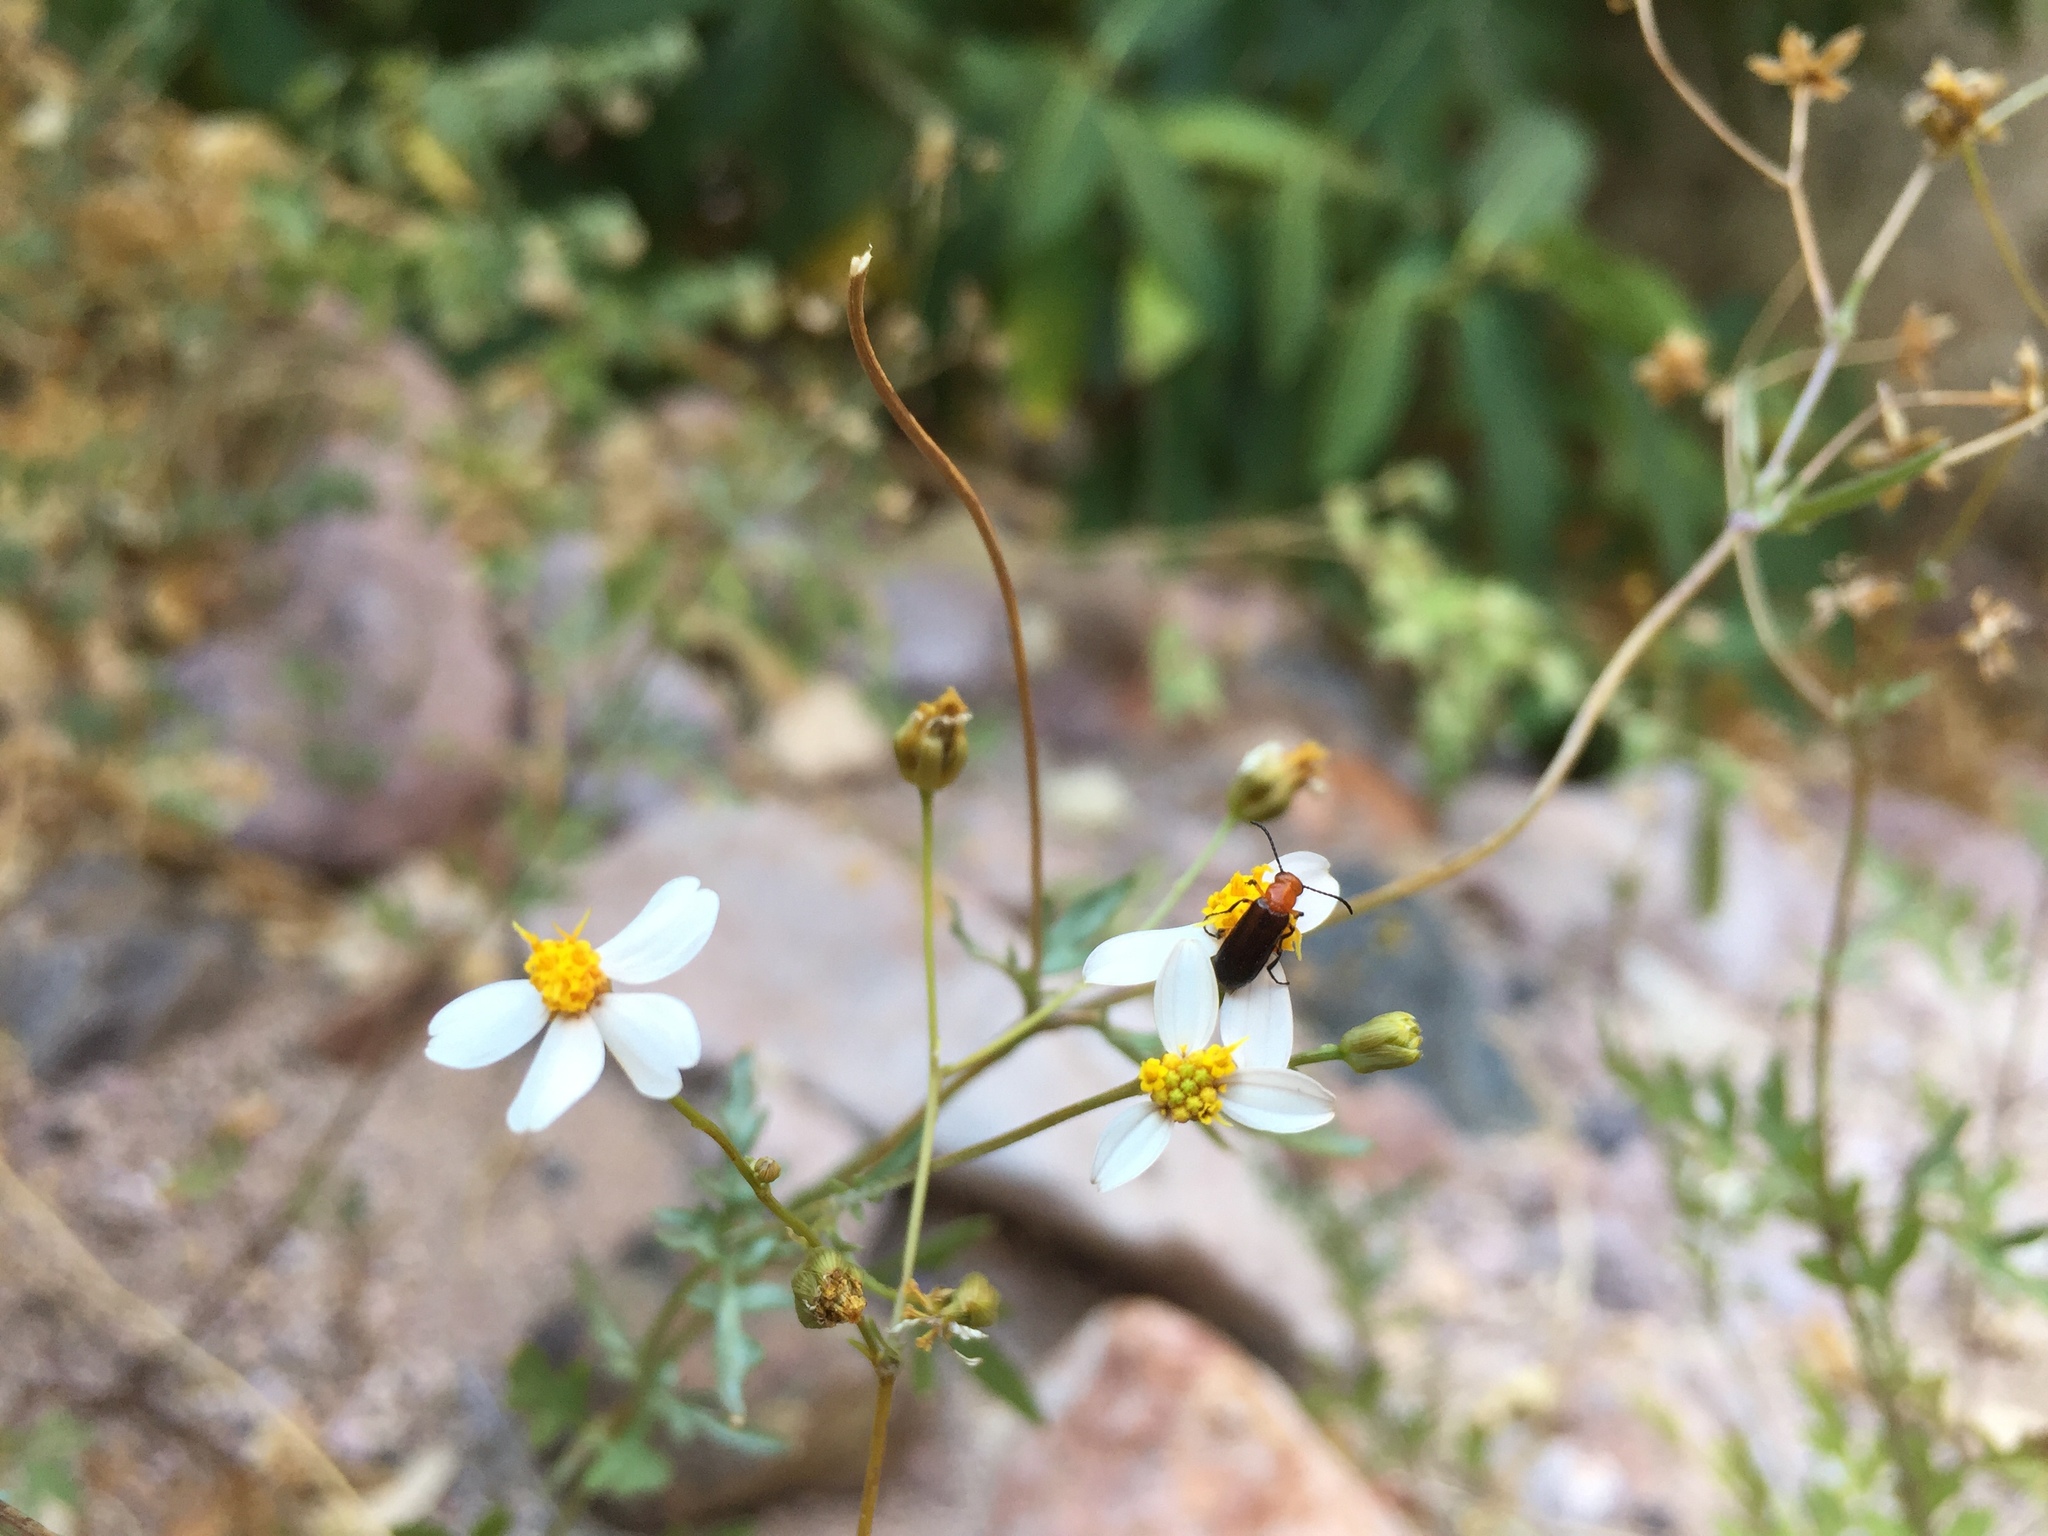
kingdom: Plantae
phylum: Tracheophyta
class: Magnoliopsida
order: Asterales
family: Asteraceae
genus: Coreocarpus
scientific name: Coreocarpus sonoranus
